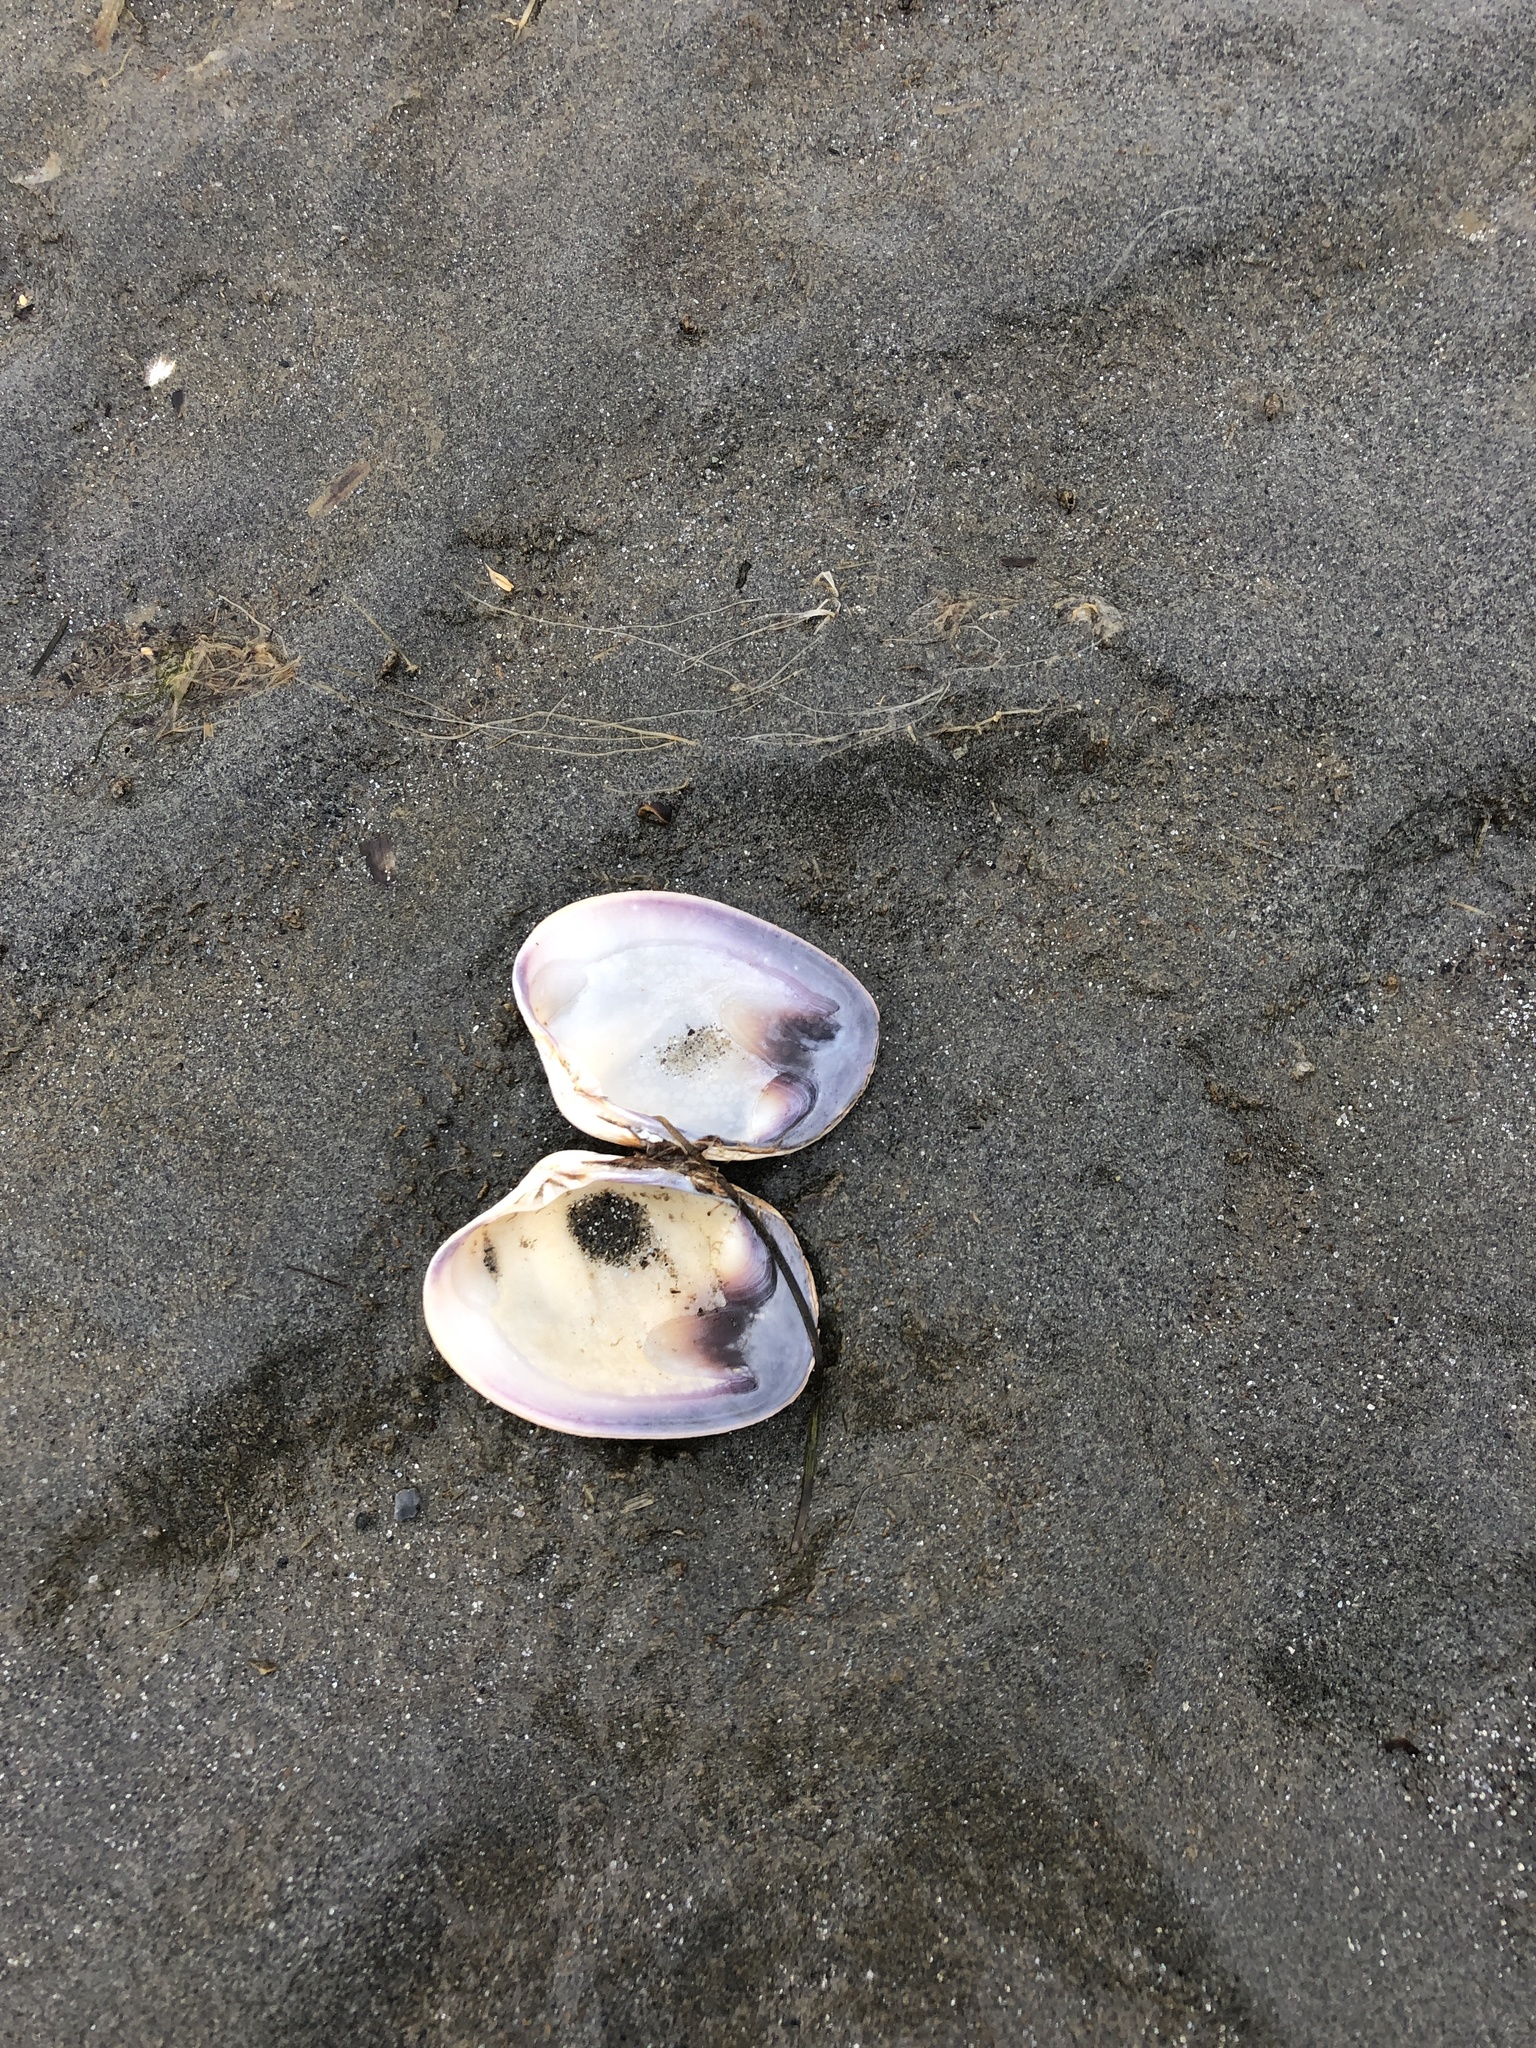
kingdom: Animalia
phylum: Mollusca
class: Bivalvia
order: Venerida
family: Veneridae
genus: Ruditapes
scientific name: Ruditapes philippinarum
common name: Manila clam
